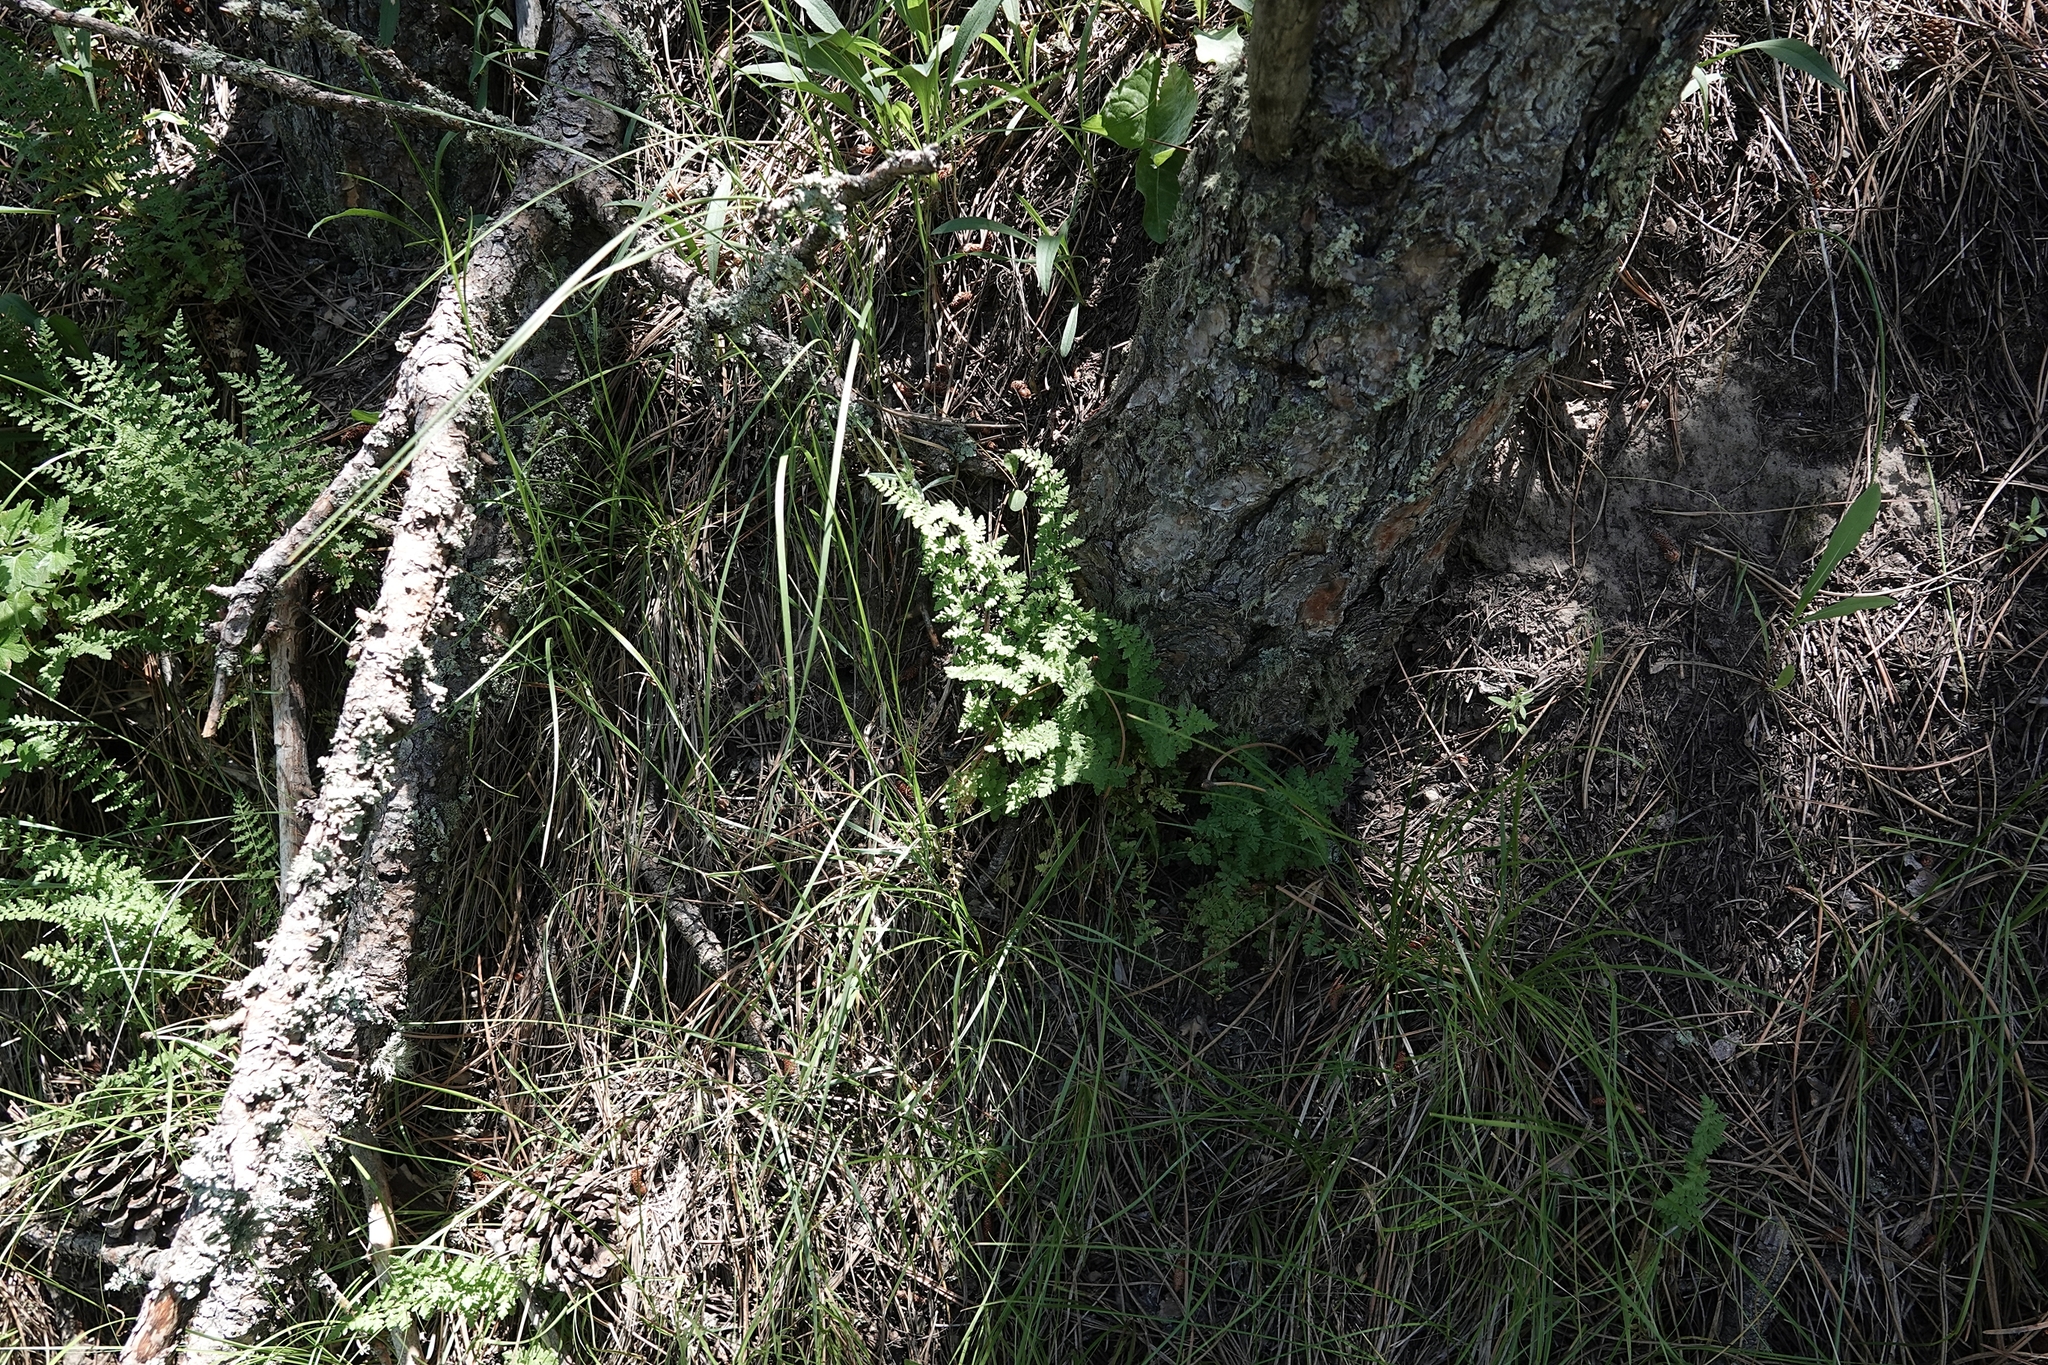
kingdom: Plantae
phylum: Tracheophyta
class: Polypodiopsida
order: Polypodiales
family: Woodsiaceae
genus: Physematium
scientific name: Physematium obtusum
